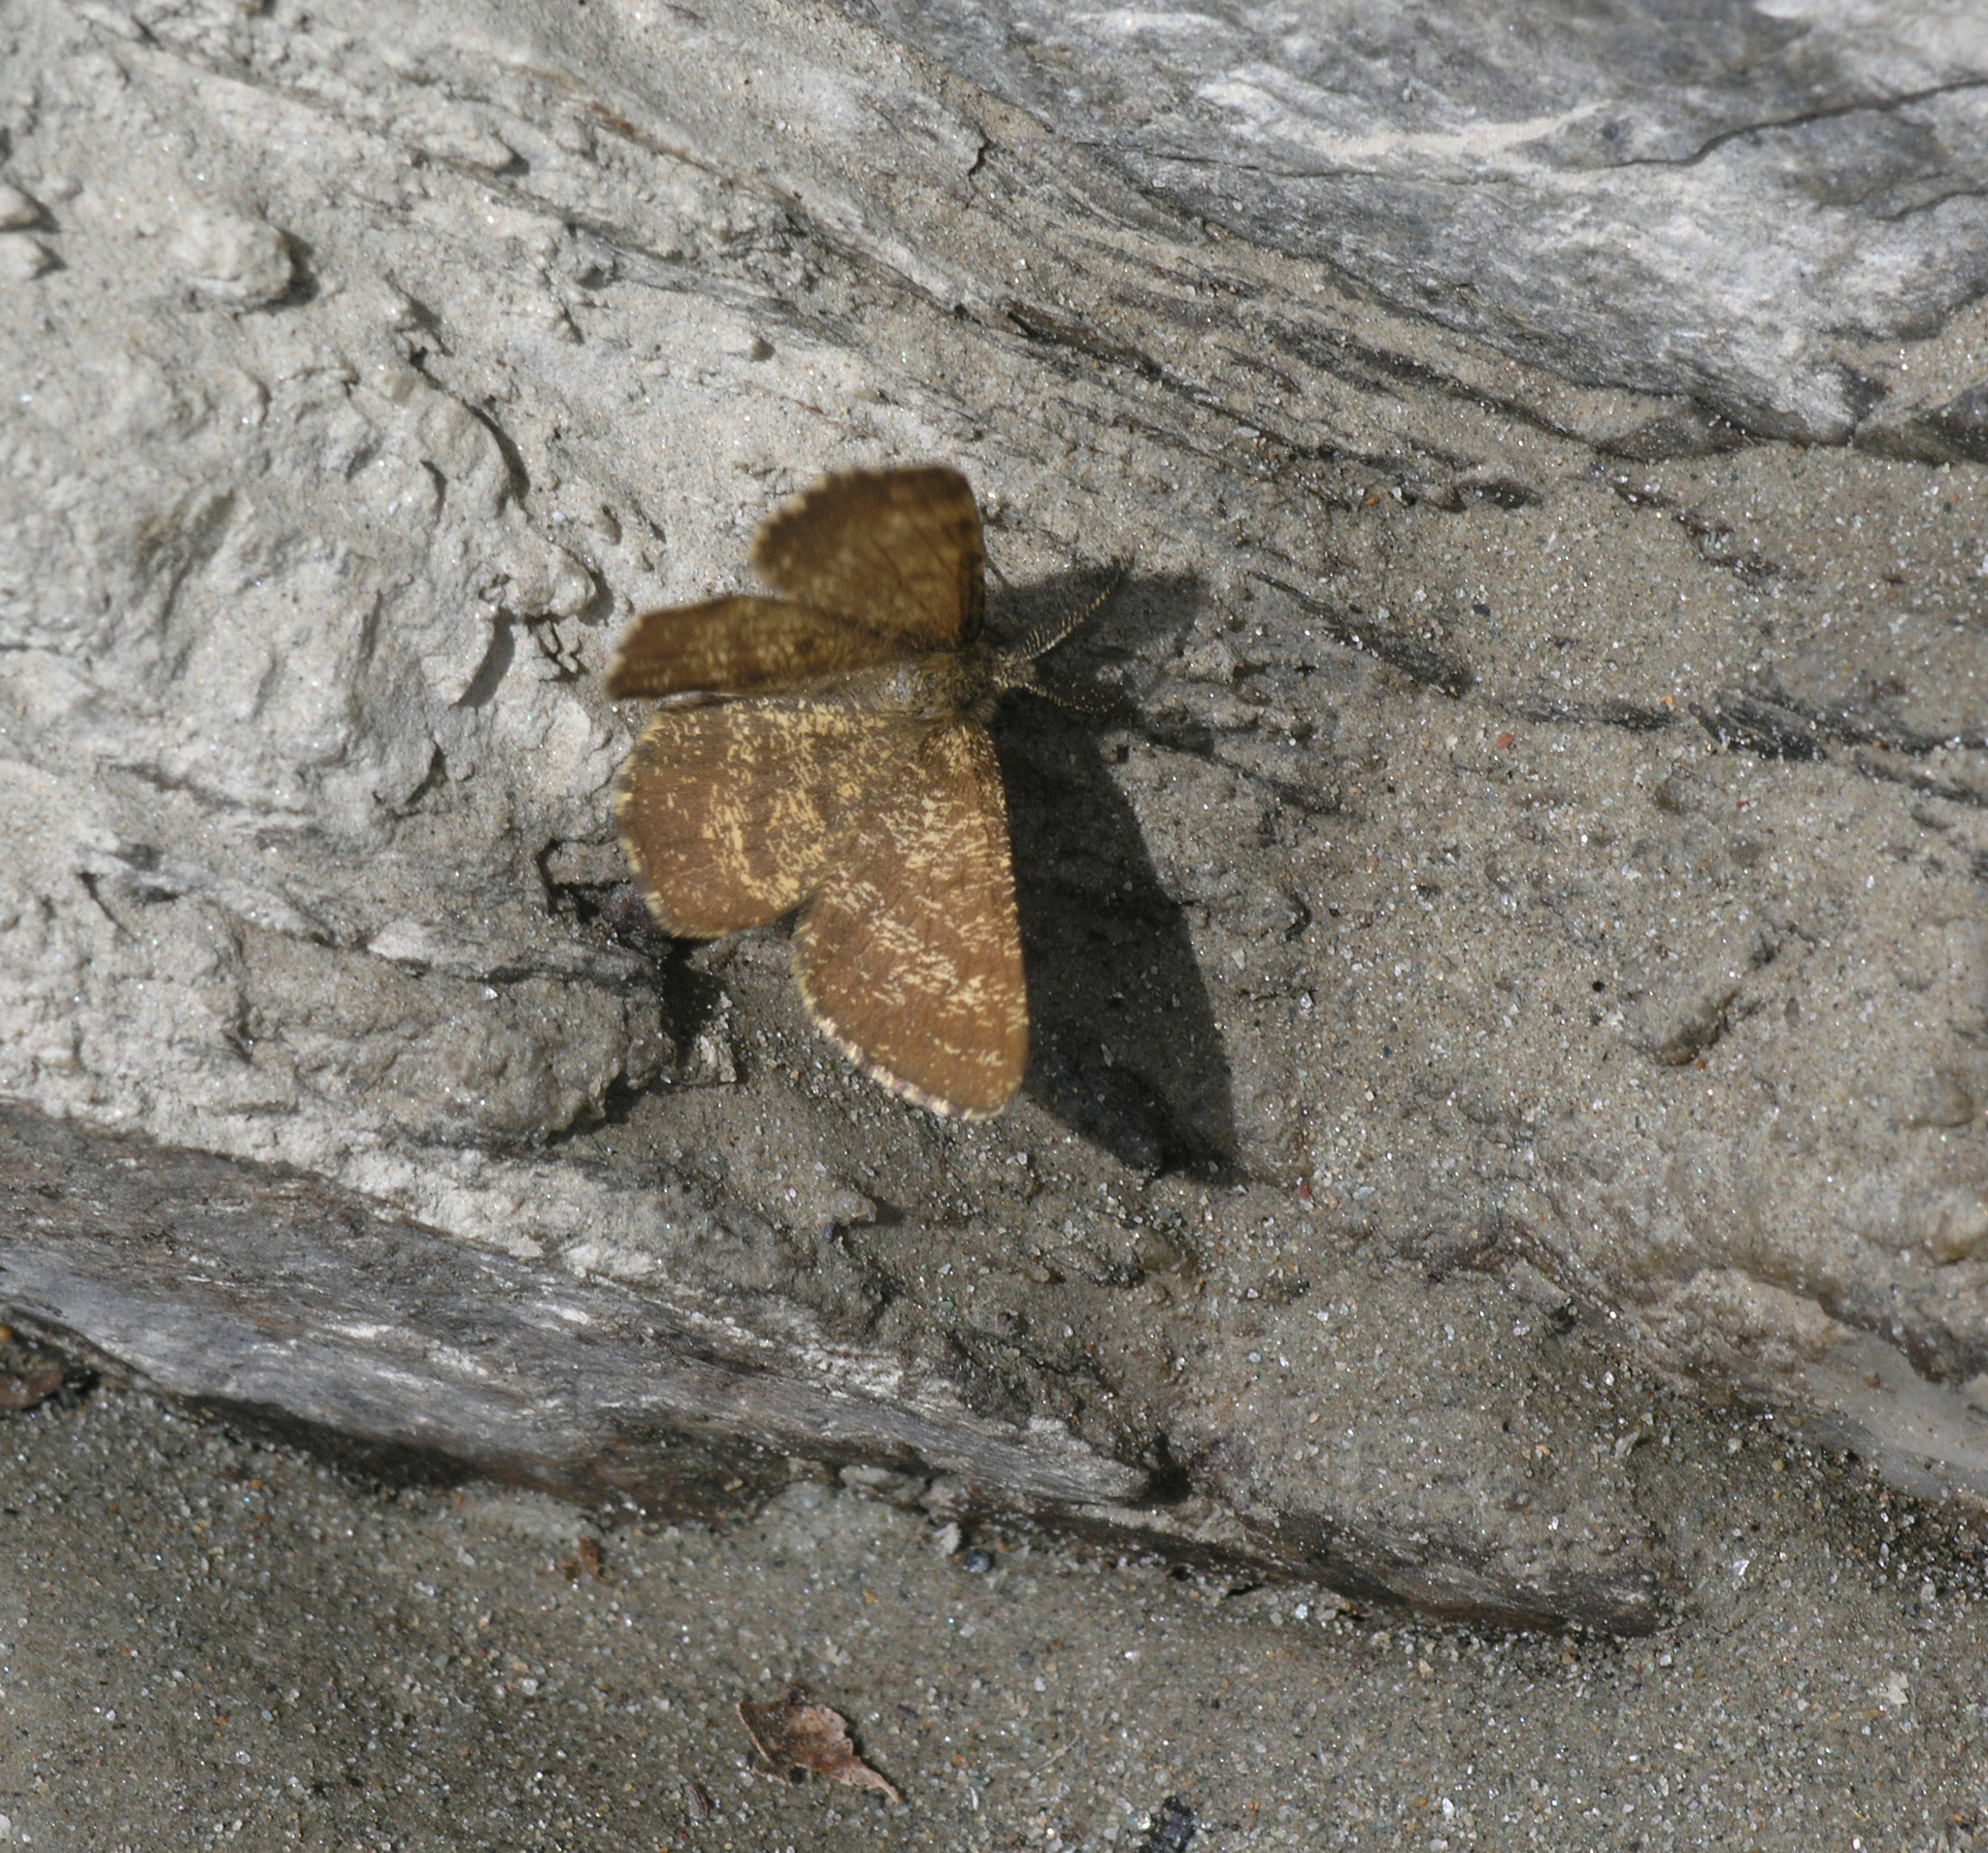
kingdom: Animalia
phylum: Arthropoda
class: Insecta
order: Lepidoptera
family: Geometridae
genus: Ematurga
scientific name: Ematurga atomaria
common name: Common heath
